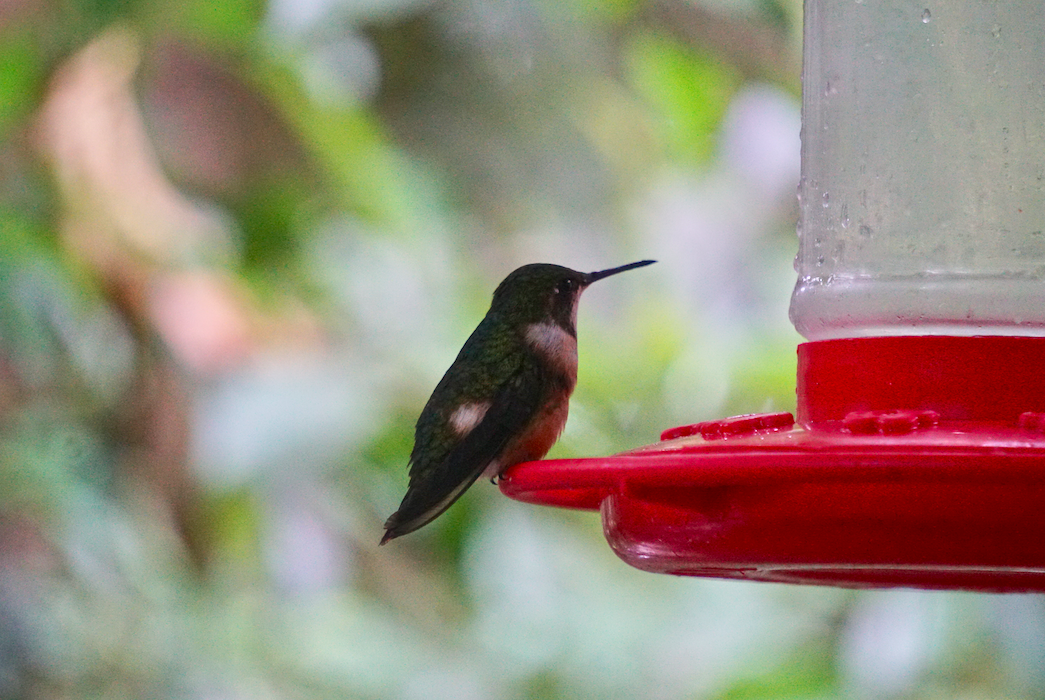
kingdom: Animalia
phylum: Chordata
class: Aves
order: Apodiformes
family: Trochilidae
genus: Calliphlox
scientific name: Calliphlox bryantae
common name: Magenta-throated woodstar
